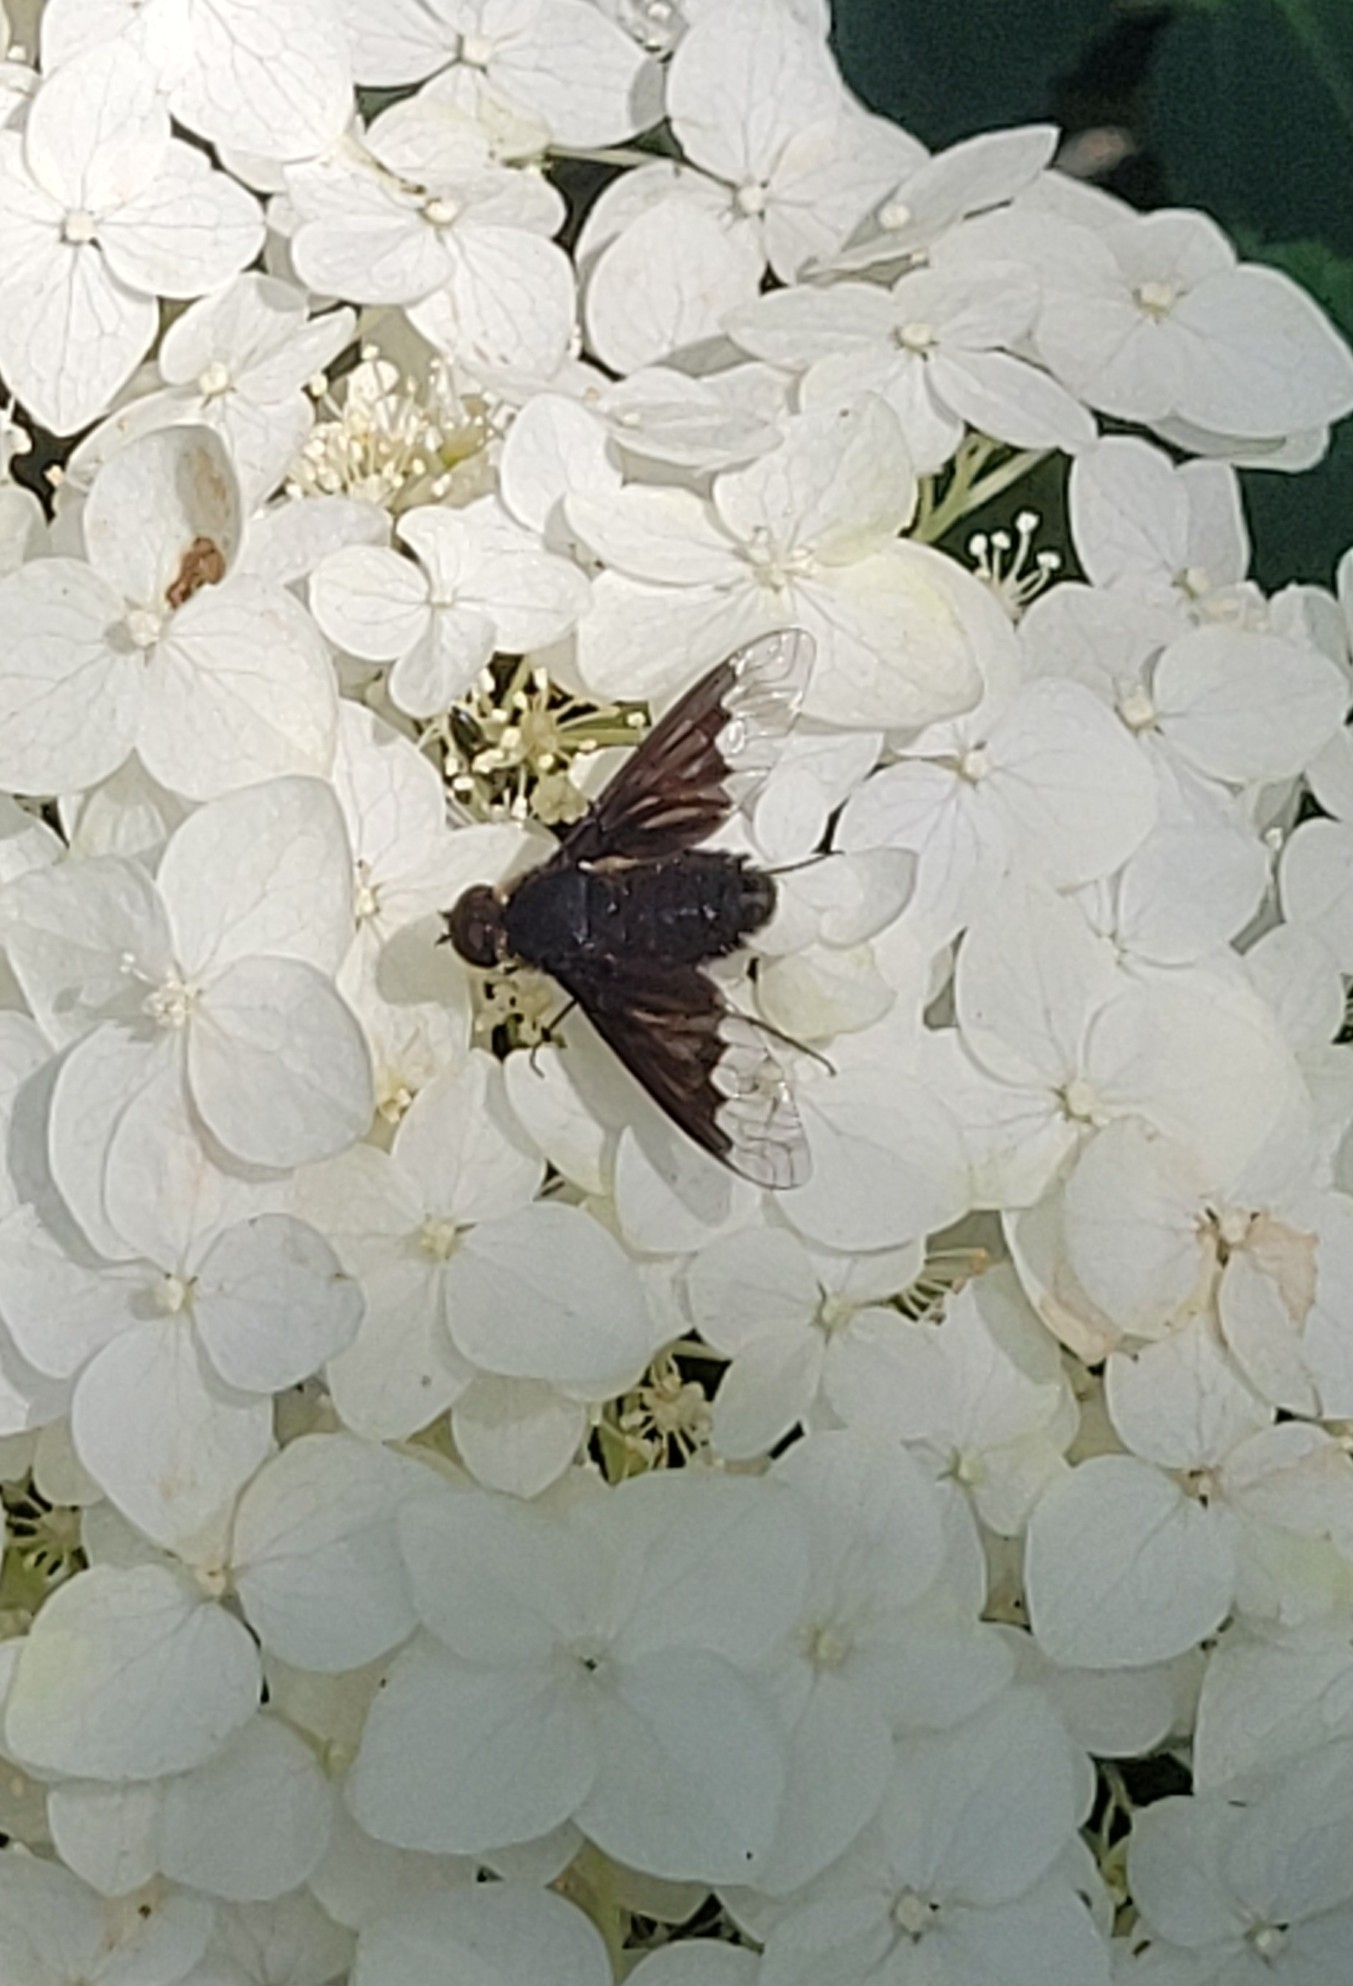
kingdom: Animalia
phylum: Arthropoda
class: Insecta
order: Diptera
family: Bombyliidae
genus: Hemipenthes
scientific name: Hemipenthes morio
